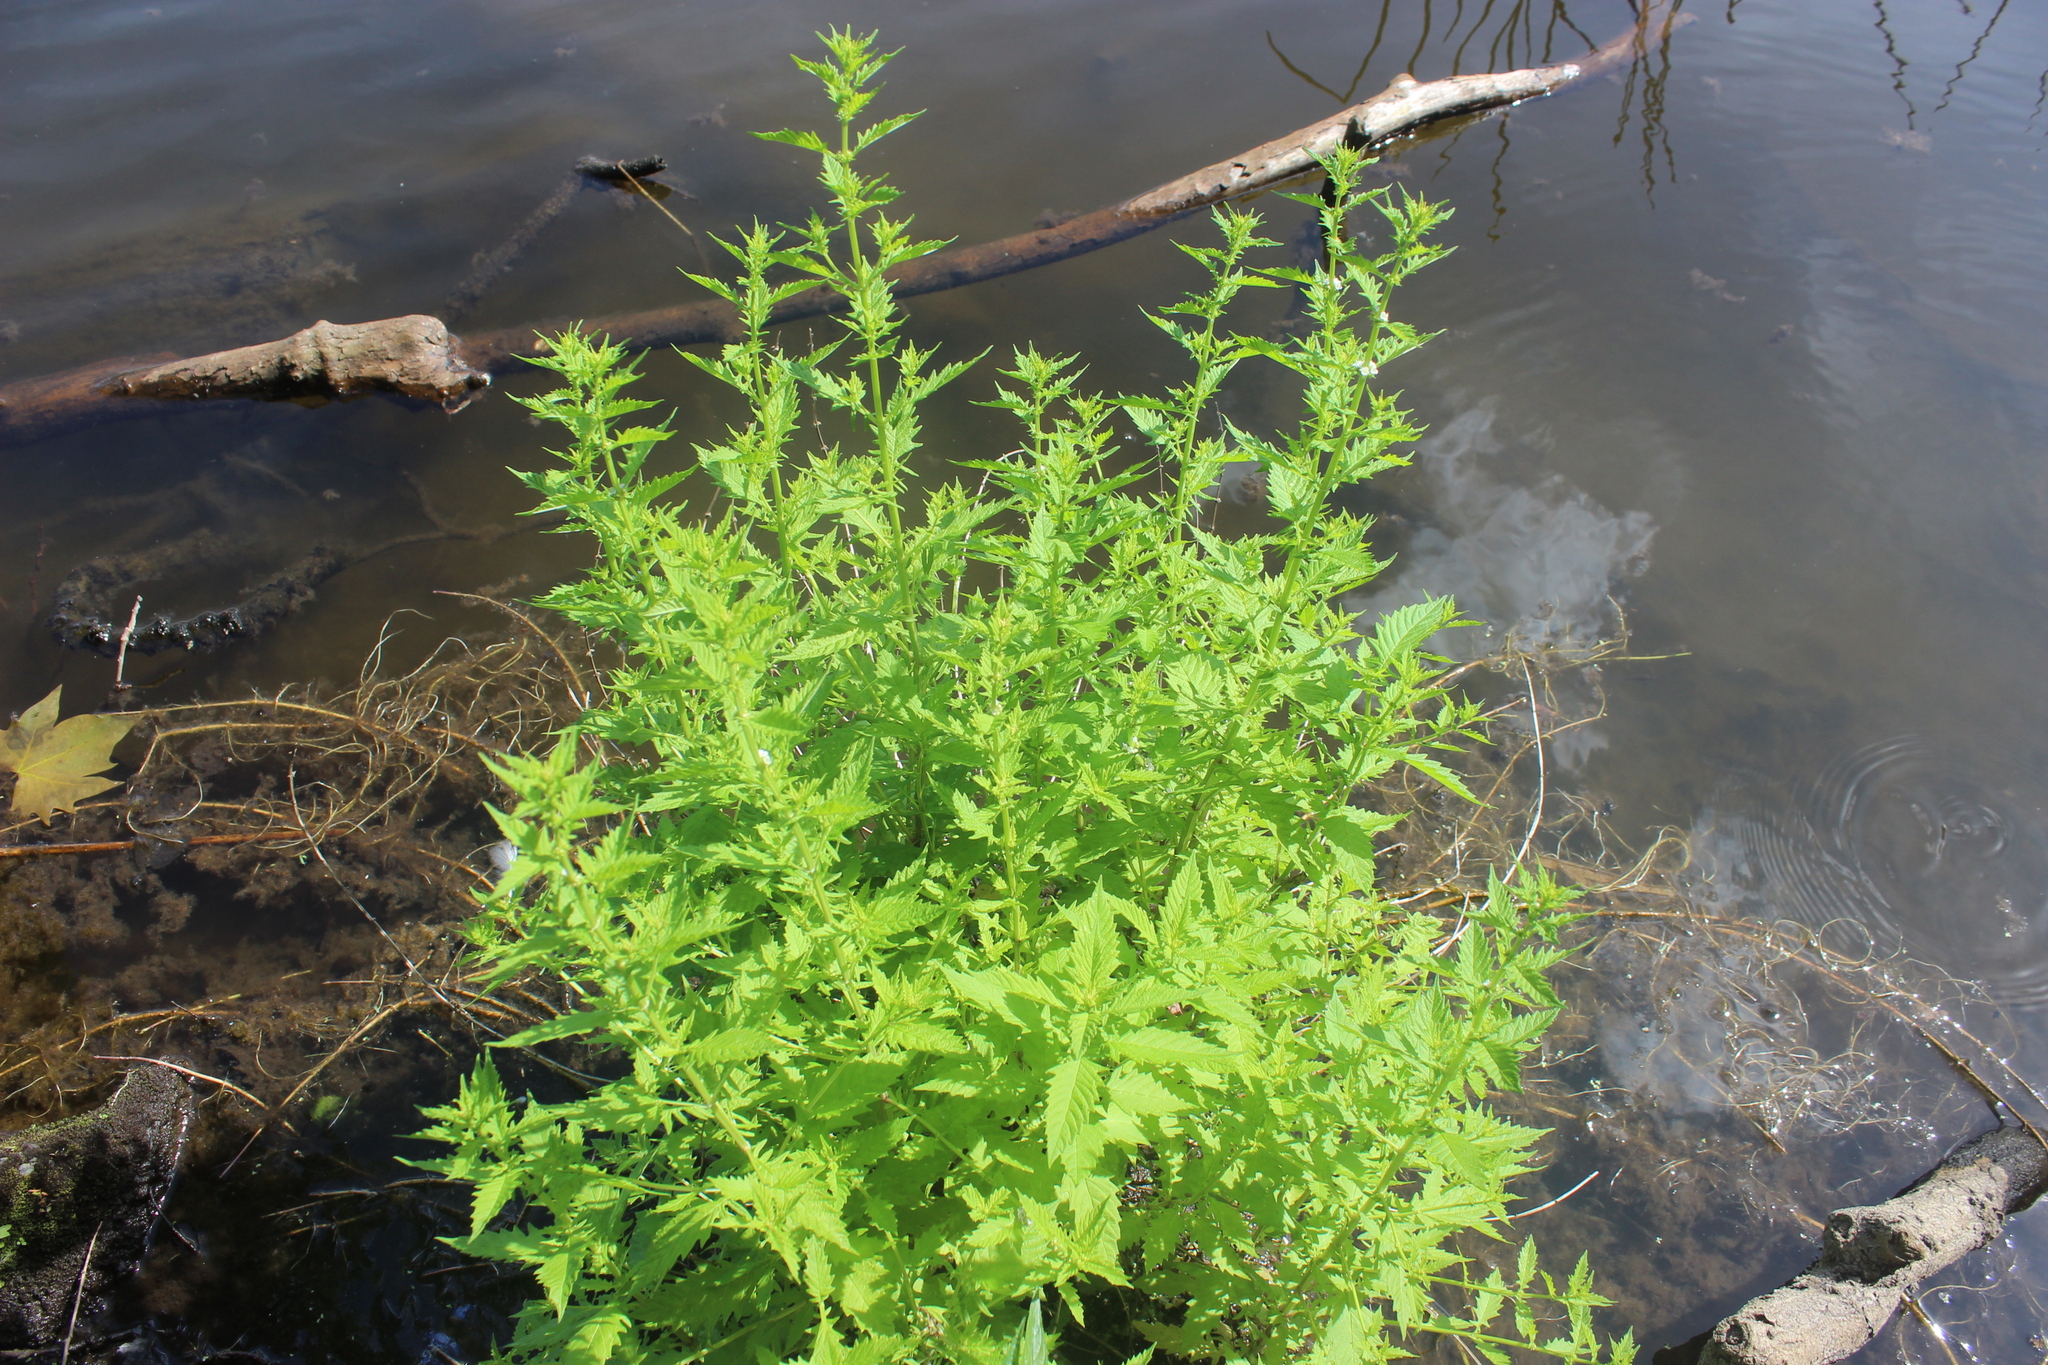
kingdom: Plantae
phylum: Tracheophyta
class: Magnoliopsida
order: Lamiales
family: Lamiaceae
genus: Lycopus
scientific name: Lycopus europaeus
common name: European bugleweed
